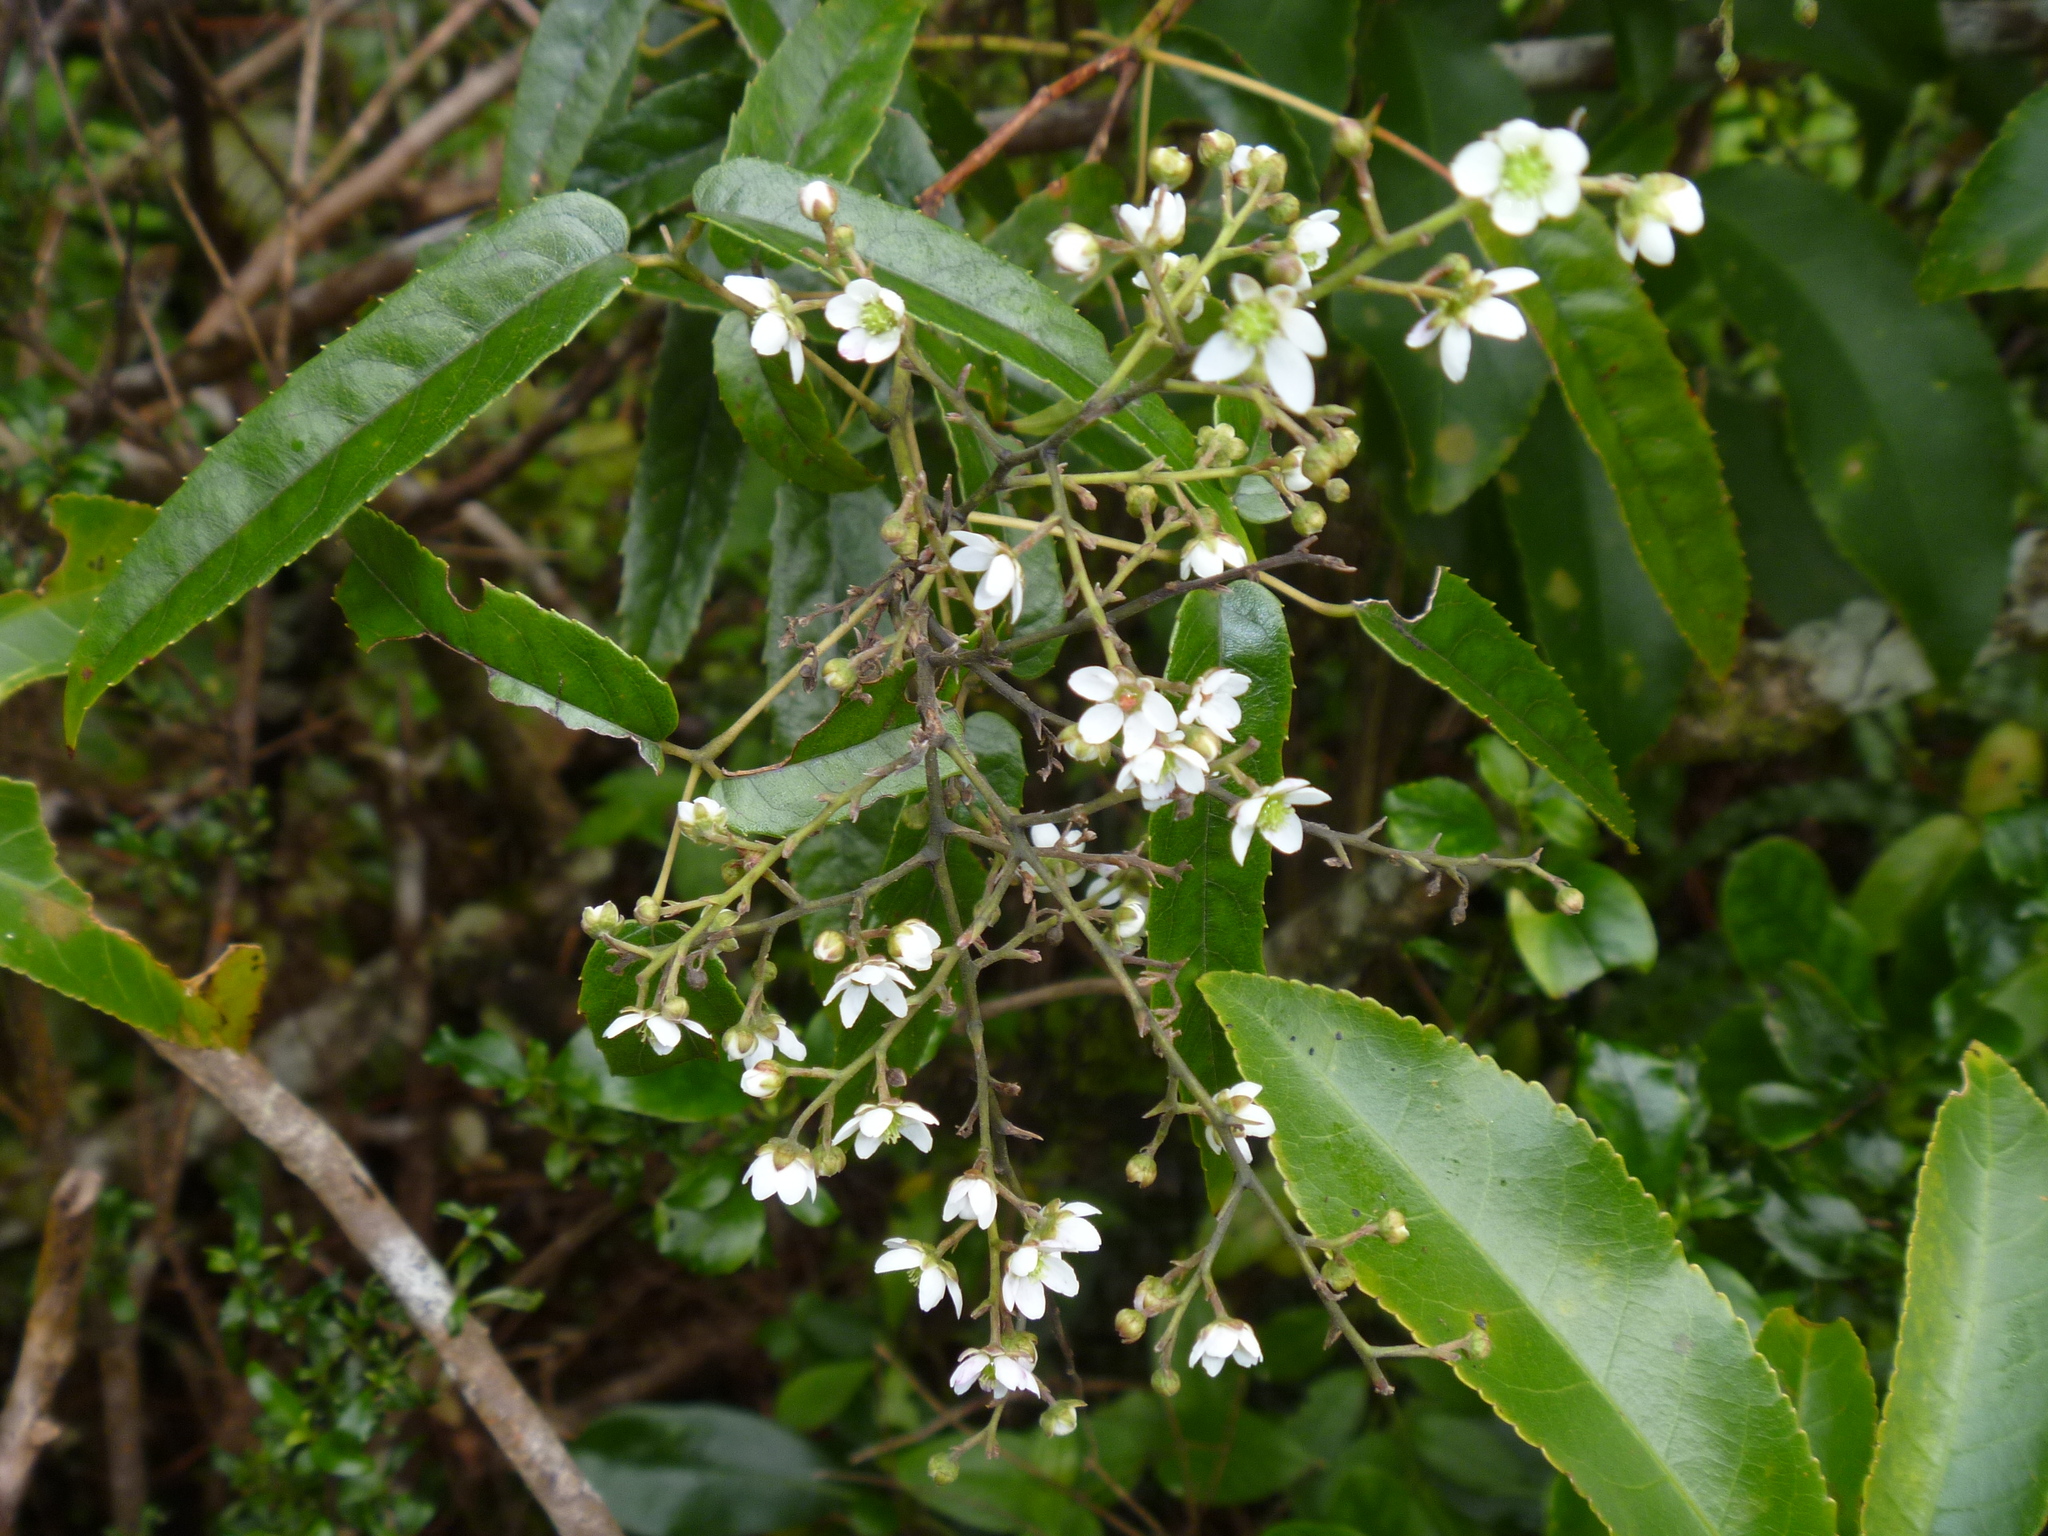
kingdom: Plantae
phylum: Tracheophyta
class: Magnoliopsida
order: Rosales
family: Rosaceae
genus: Rubus
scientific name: Rubus cissoides
